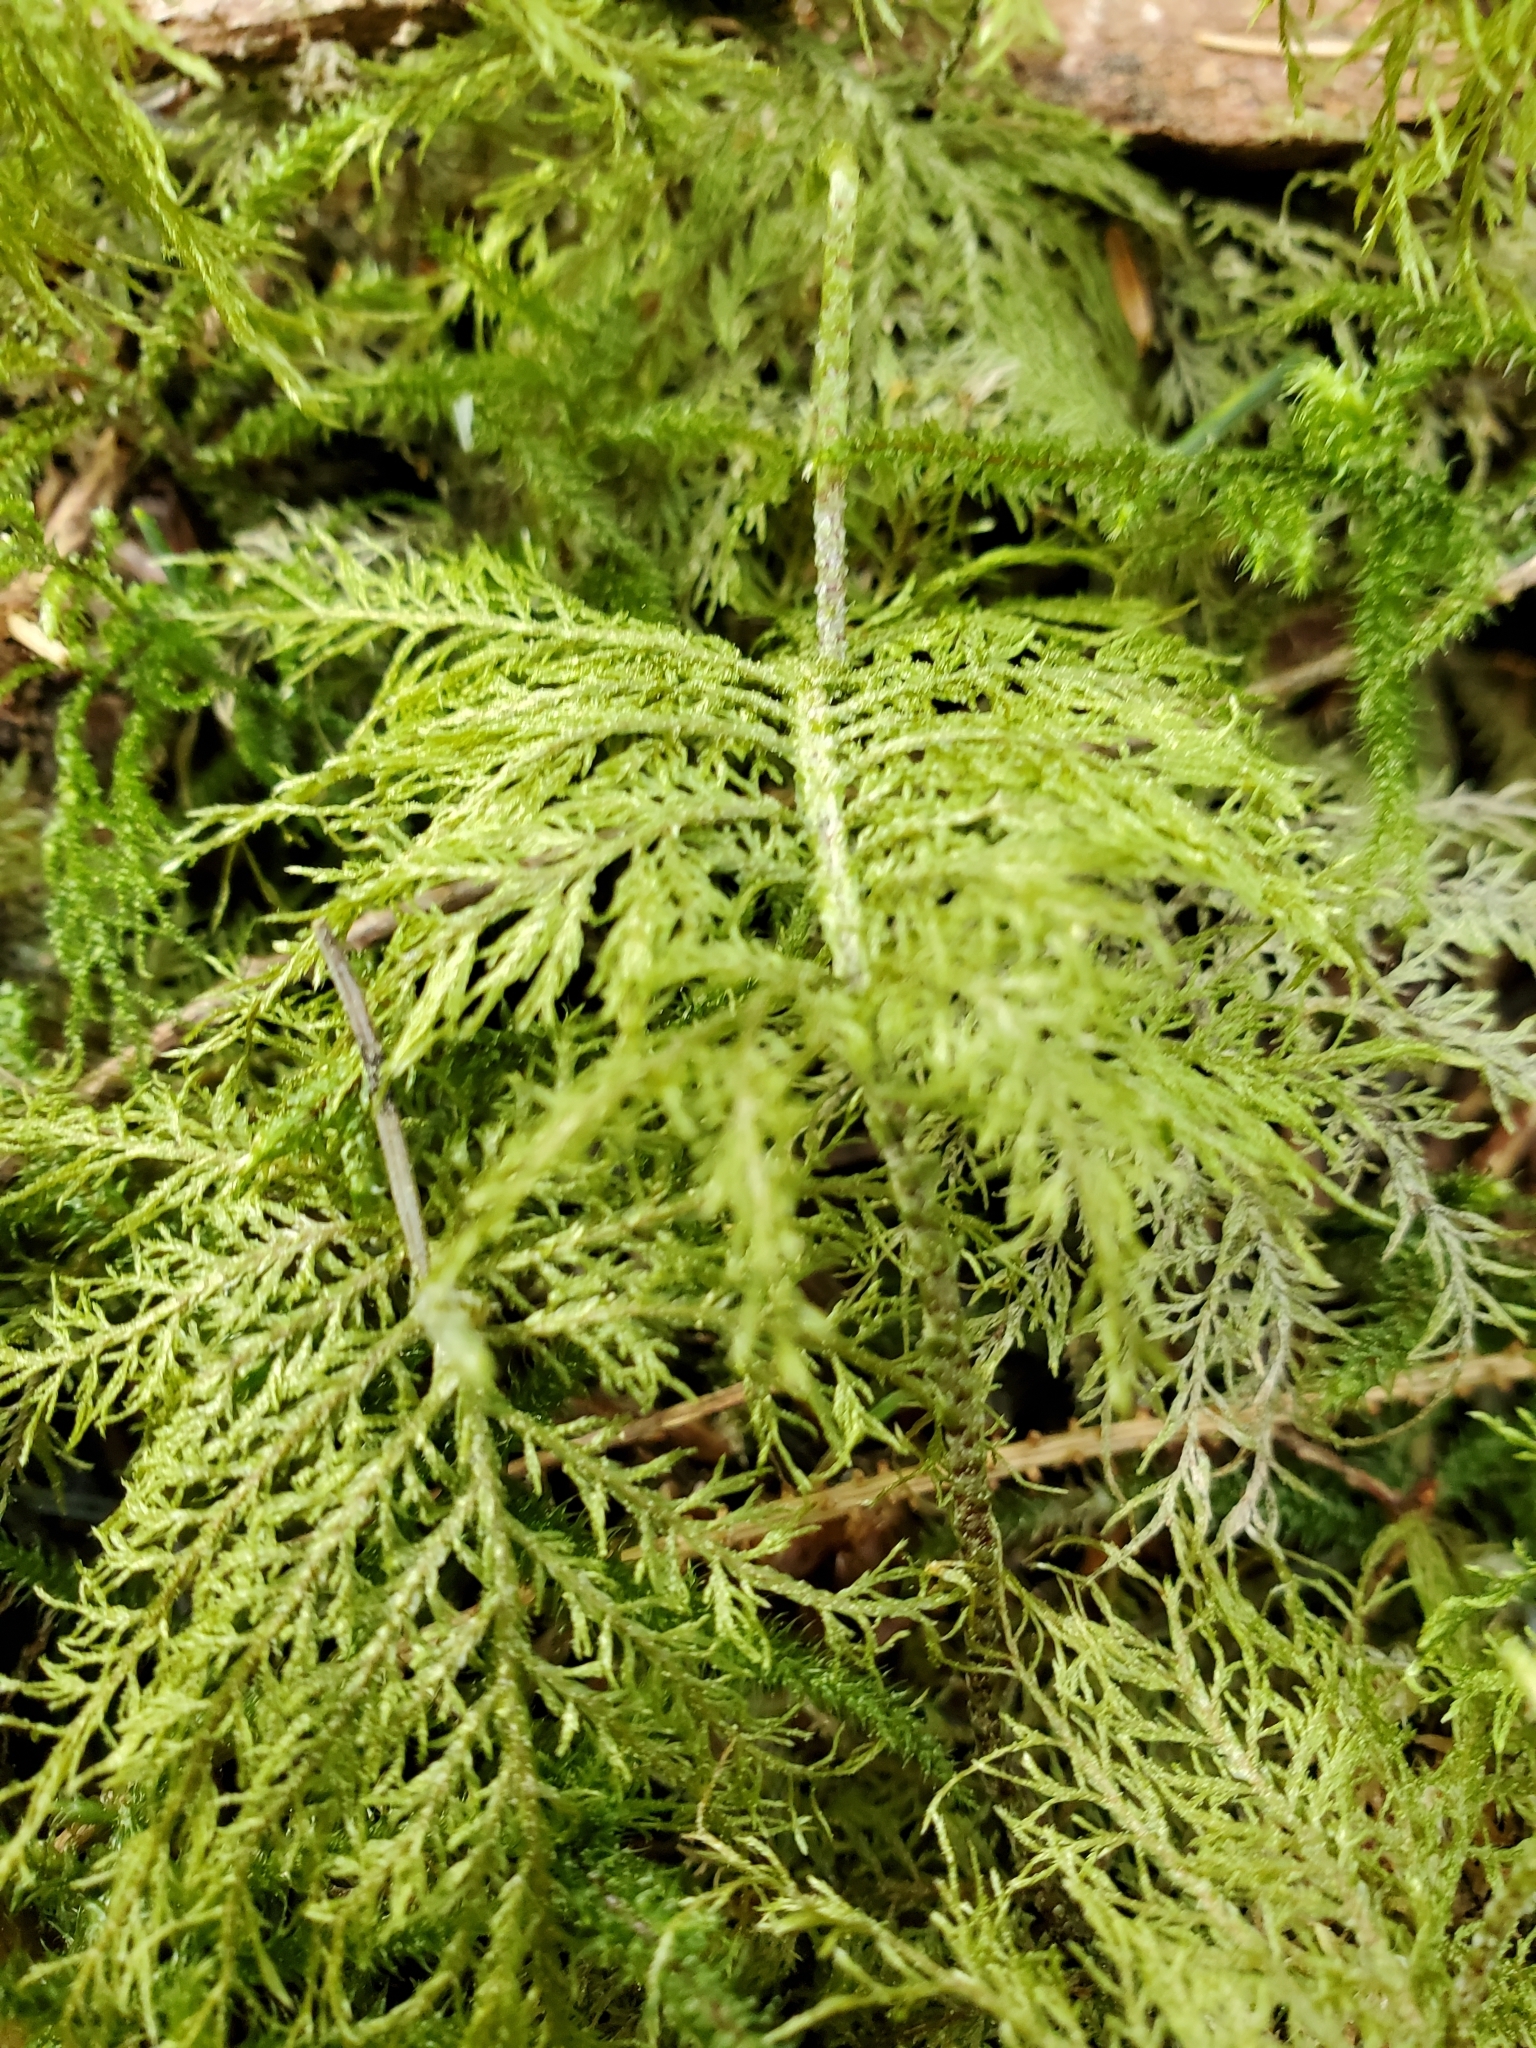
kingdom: Plantae
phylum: Bryophyta
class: Bryopsida
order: Hypnales
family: Brachytheciaceae
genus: Kindbergia
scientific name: Kindbergia praelonga
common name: Slender beaked moss
